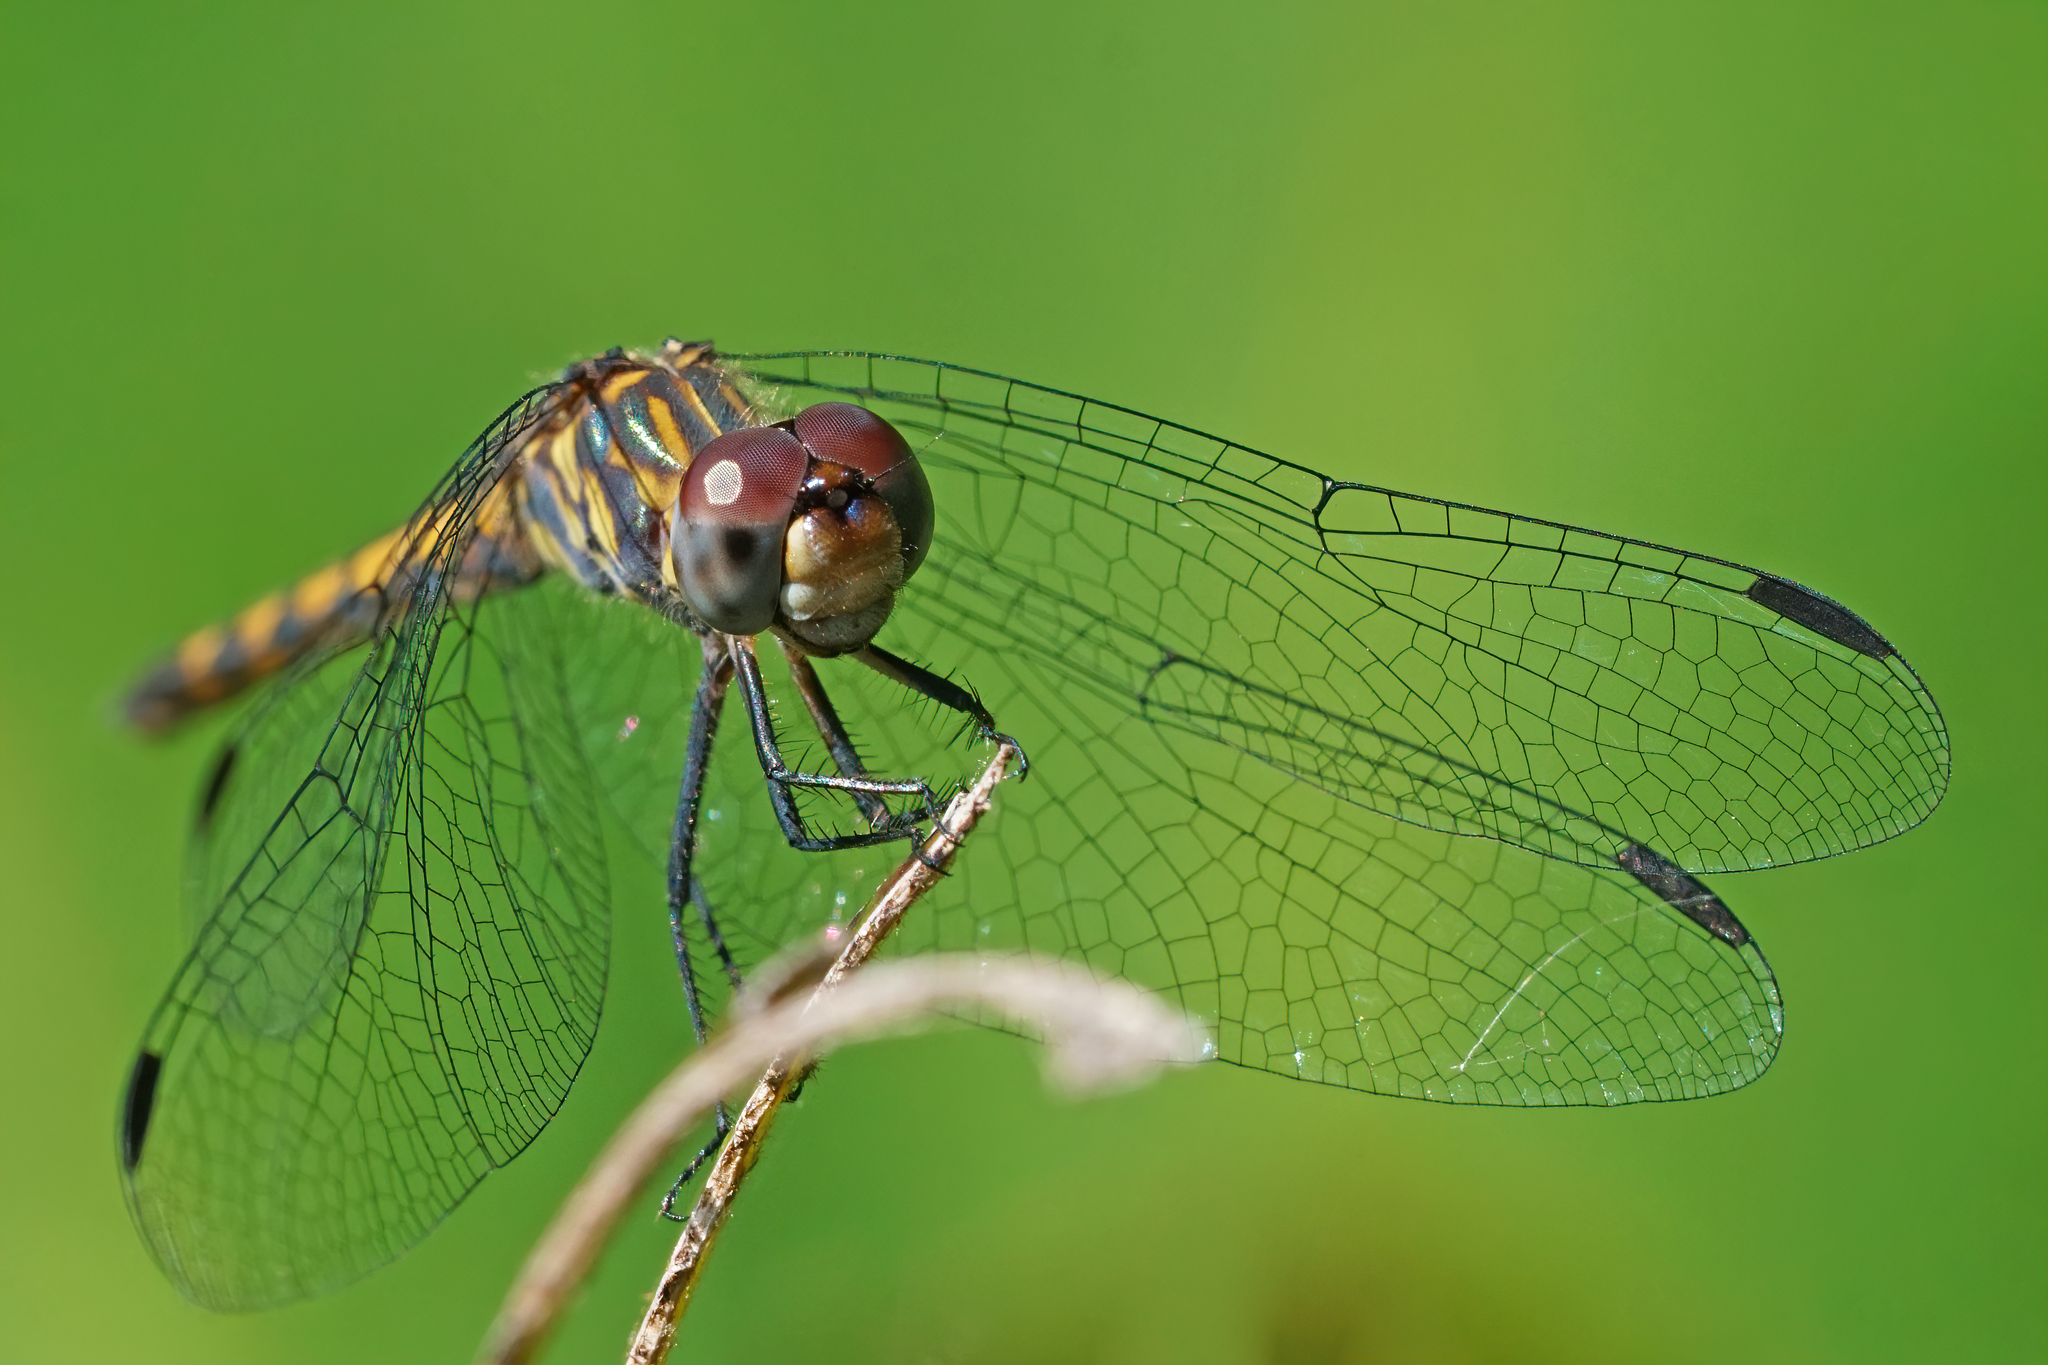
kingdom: Animalia
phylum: Arthropoda
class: Insecta
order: Odonata
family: Libellulidae
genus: Micrathyria
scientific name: Micrathyria aequalis
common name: Spot-tailed dasher
